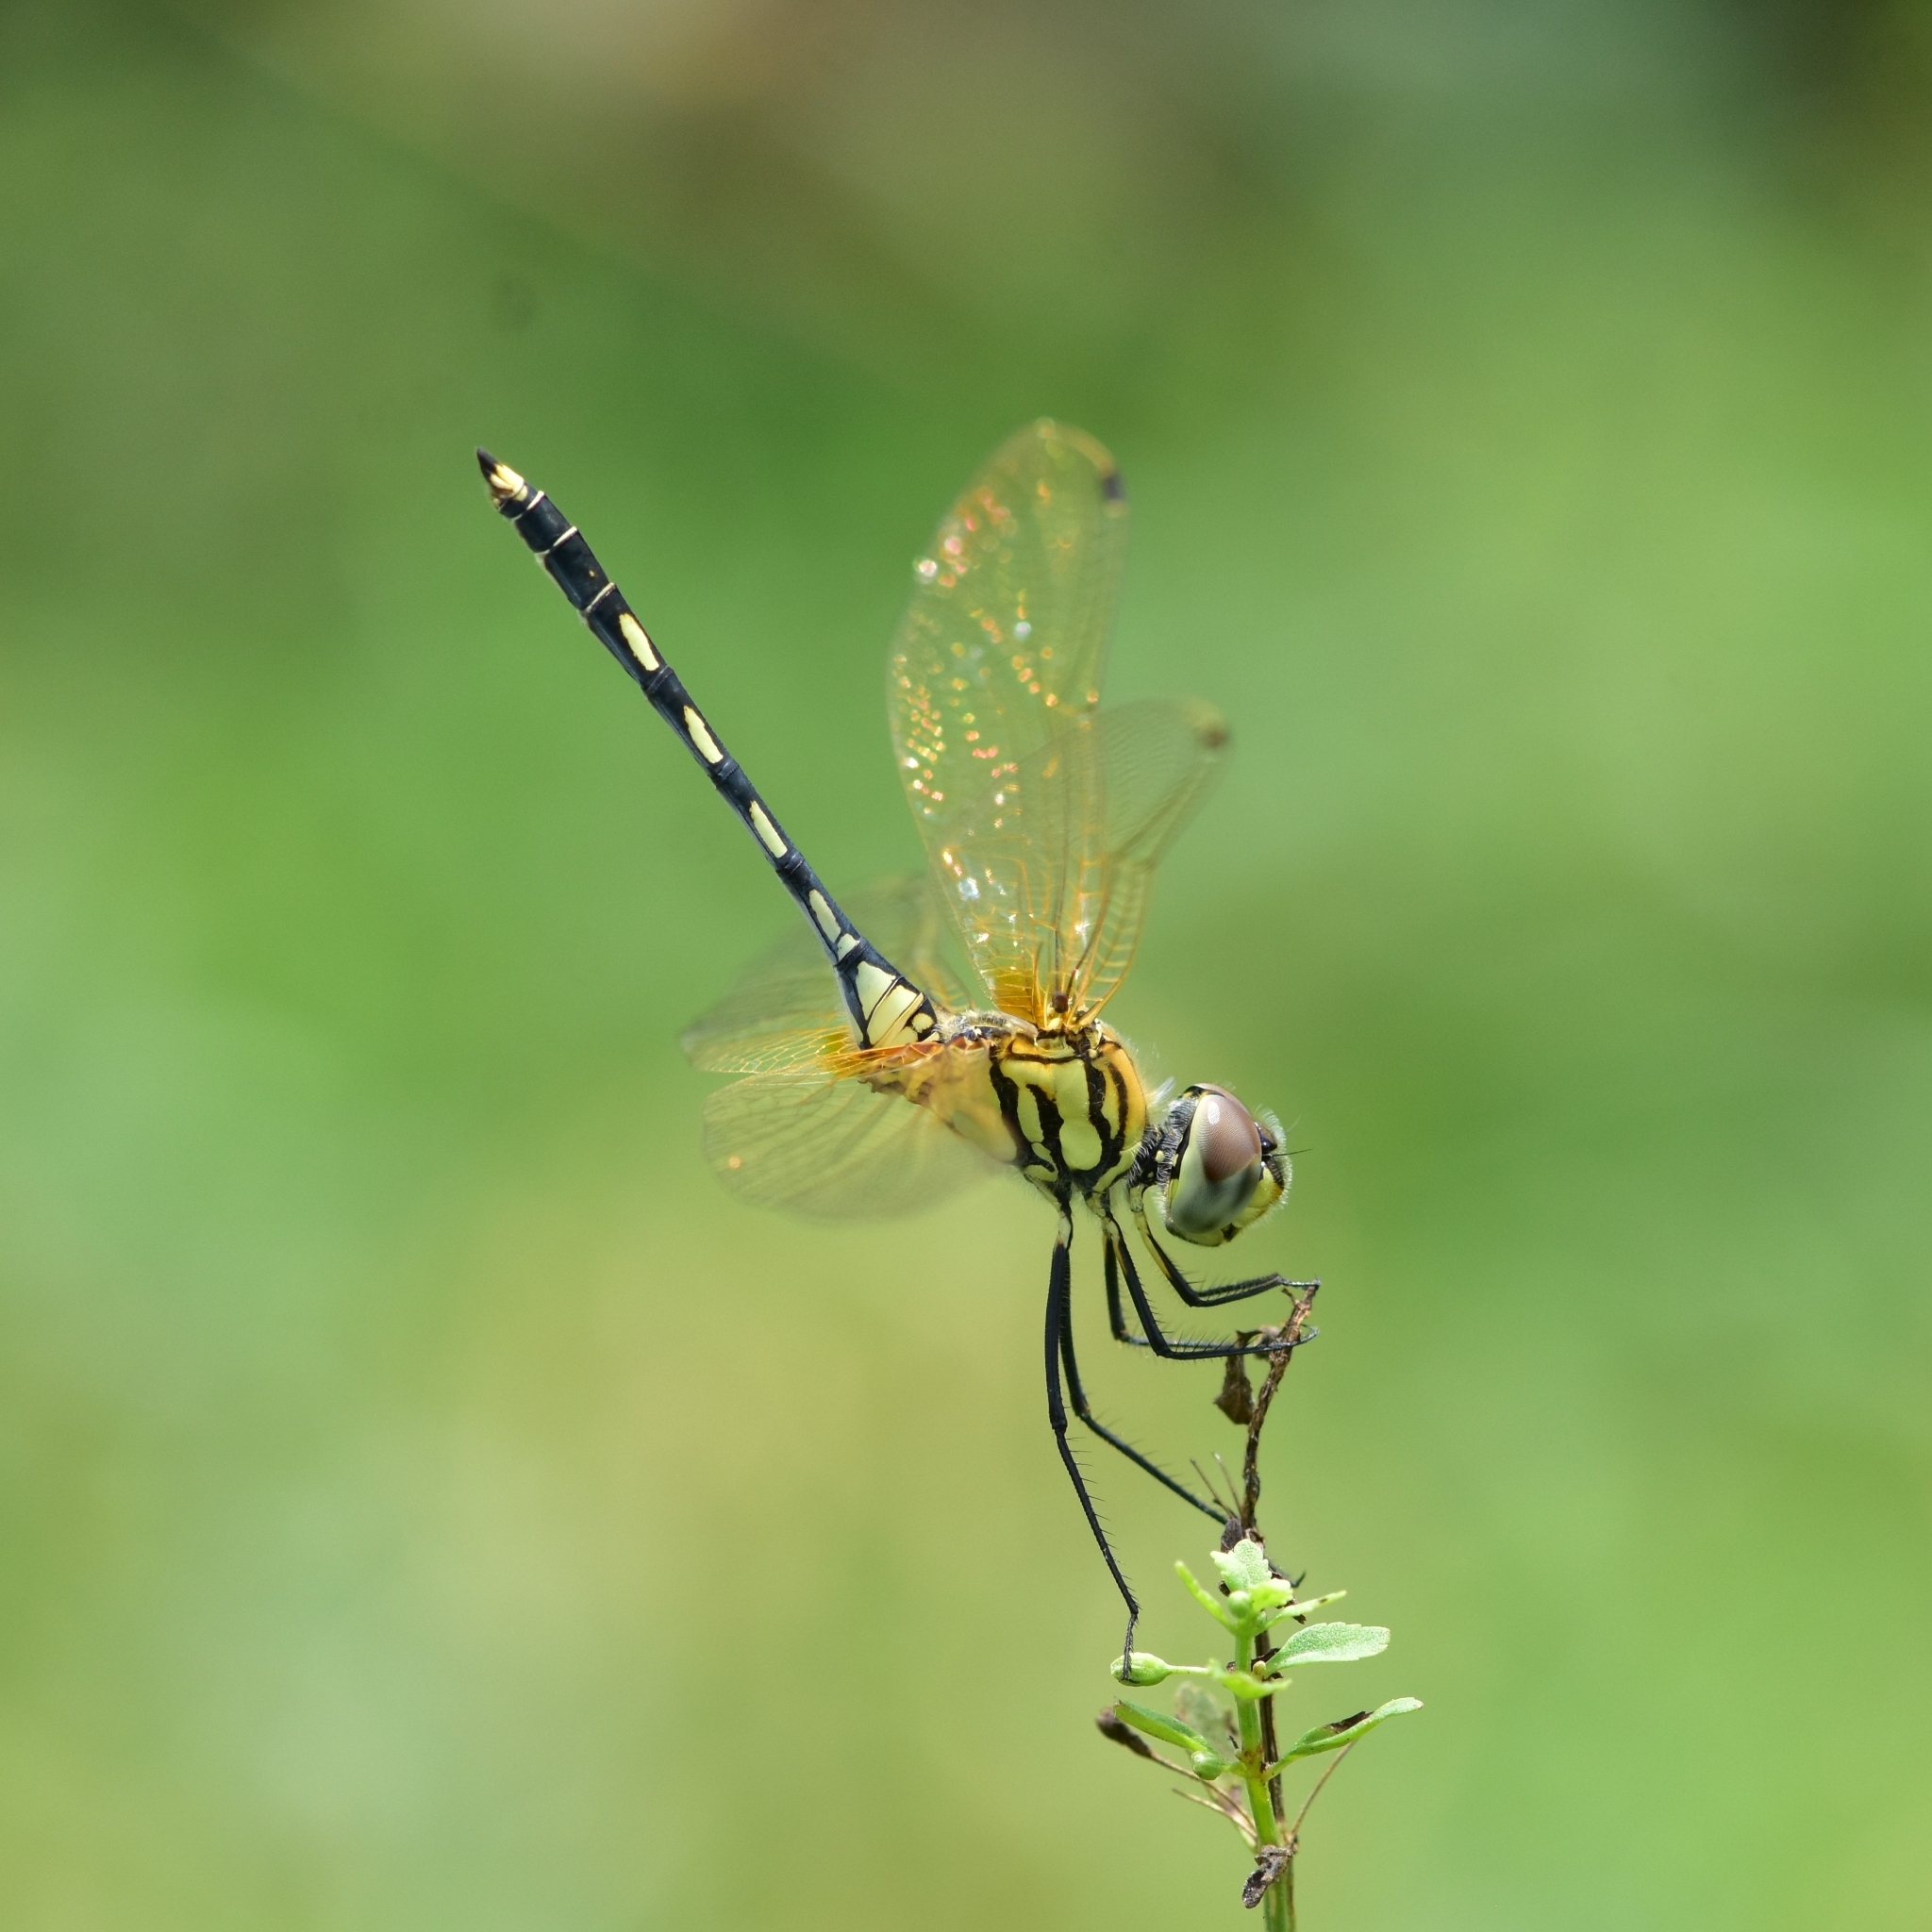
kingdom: Animalia
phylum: Arthropoda
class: Insecta
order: Odonata
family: Libellulidae
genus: Trithemis
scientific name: Trithemis pallidinervis
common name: Dancing dropwing
